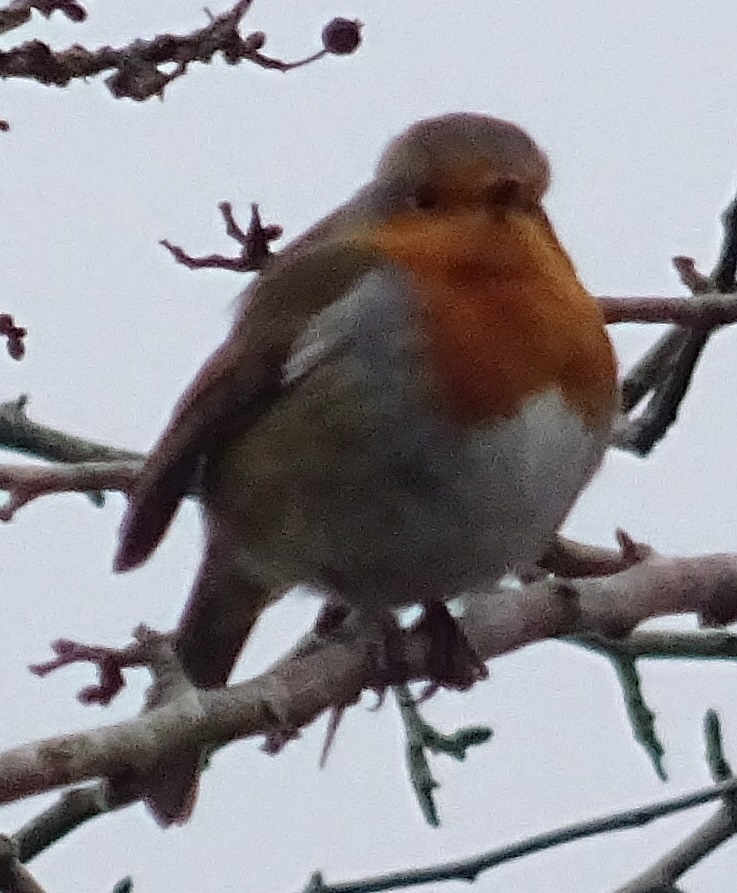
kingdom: Animalia
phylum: Chordata
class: Aves
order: Passeriformes
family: Muscicapidae
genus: Erithacus
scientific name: Erithacus rubecula
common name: European robin
